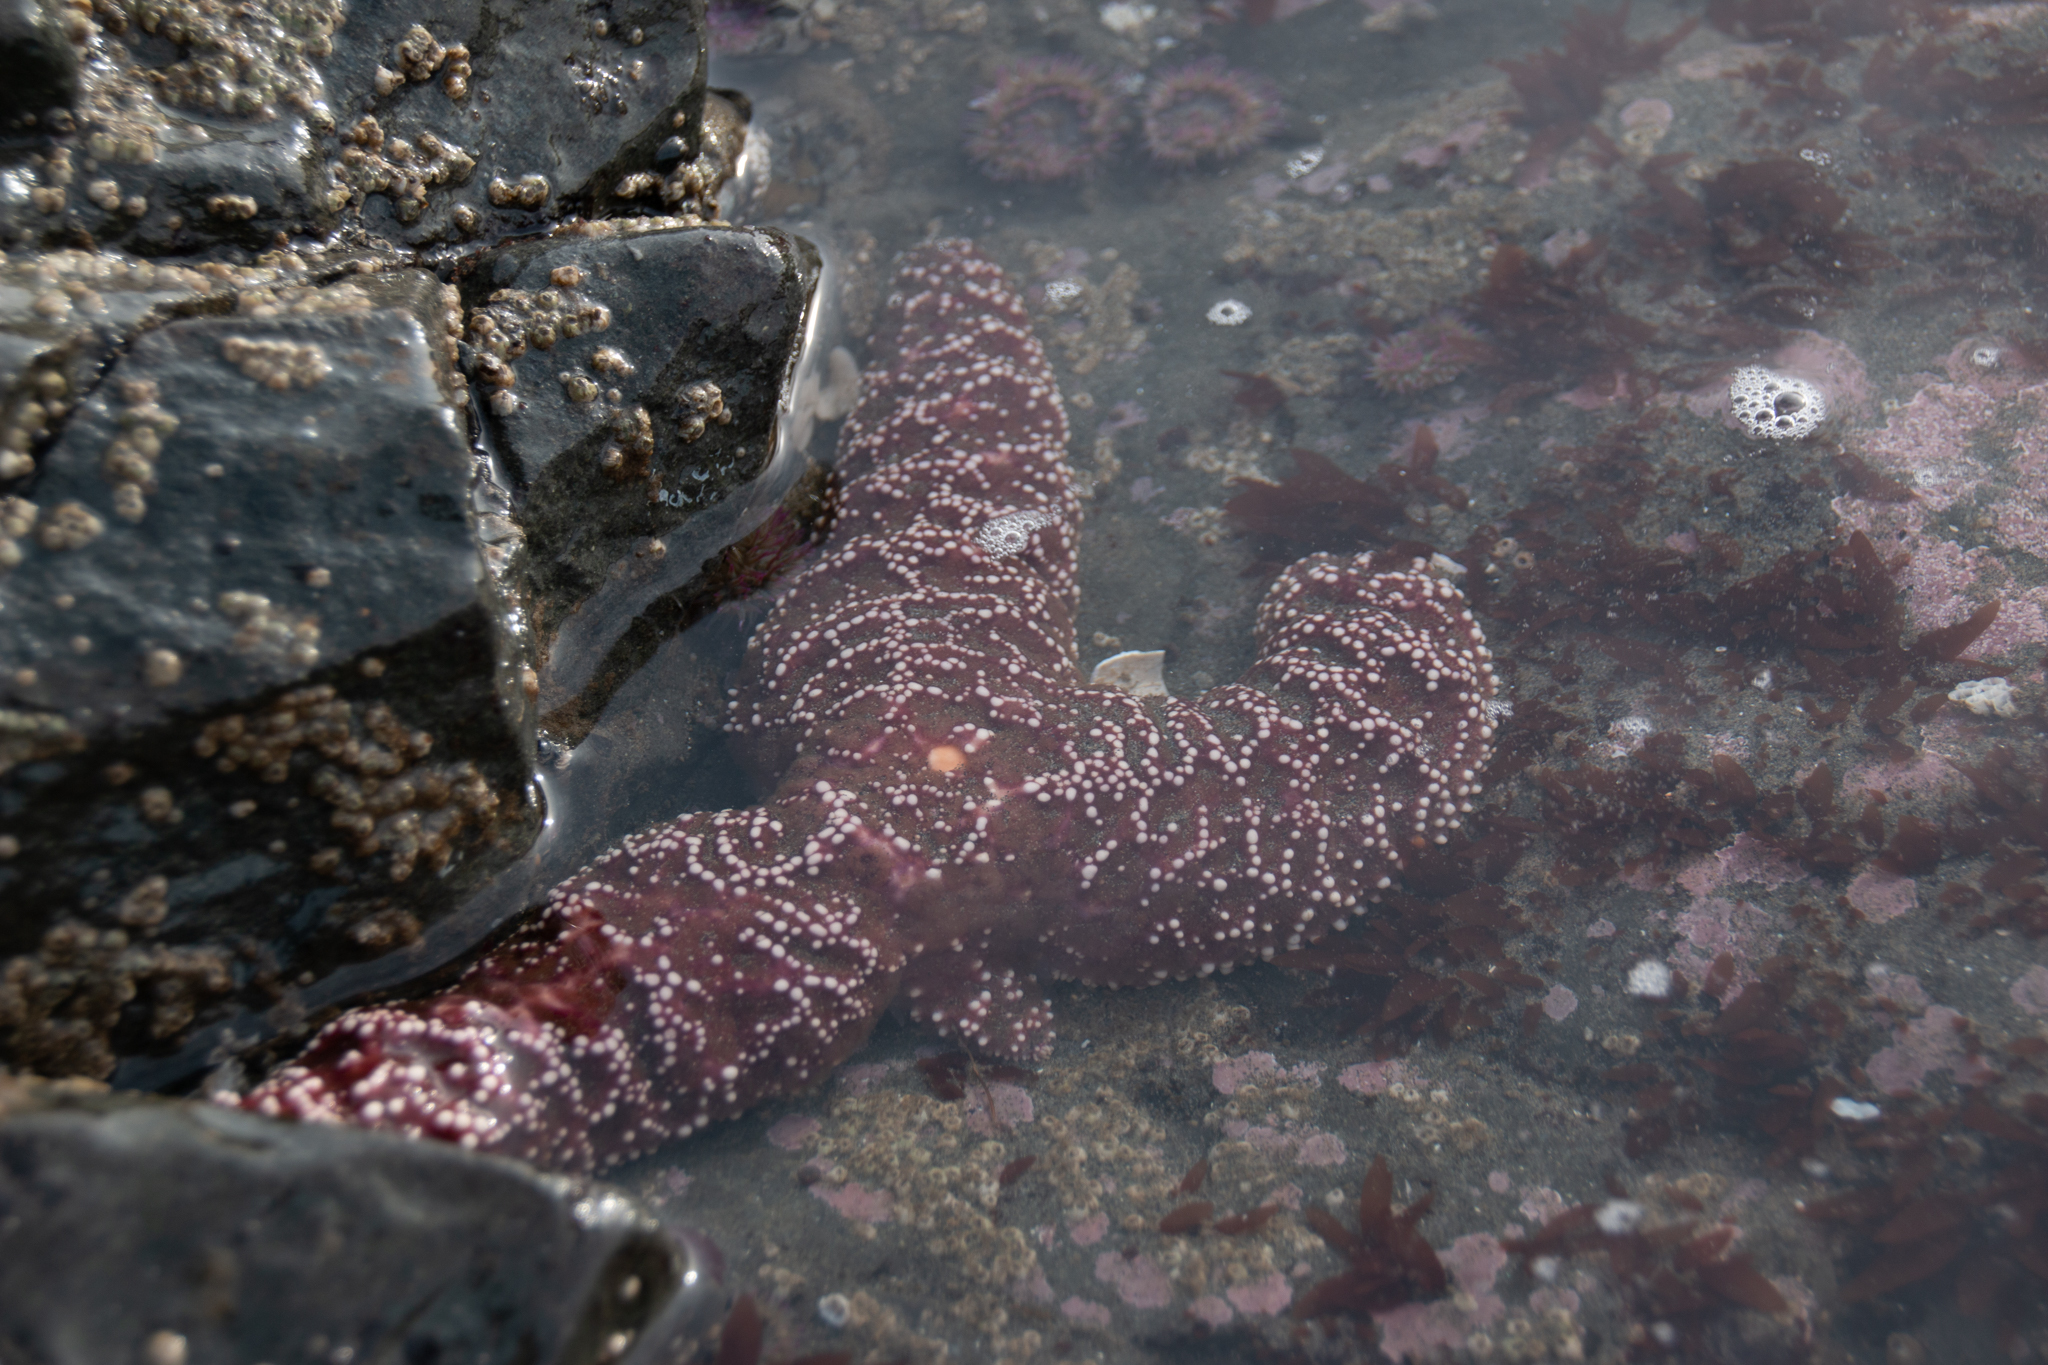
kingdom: Animalia
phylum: Echinodermata
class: Asteroidea
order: Forcipulatida
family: Asteriidae
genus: Pisaster
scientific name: Pisaster ochraceus
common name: Ochre stars
